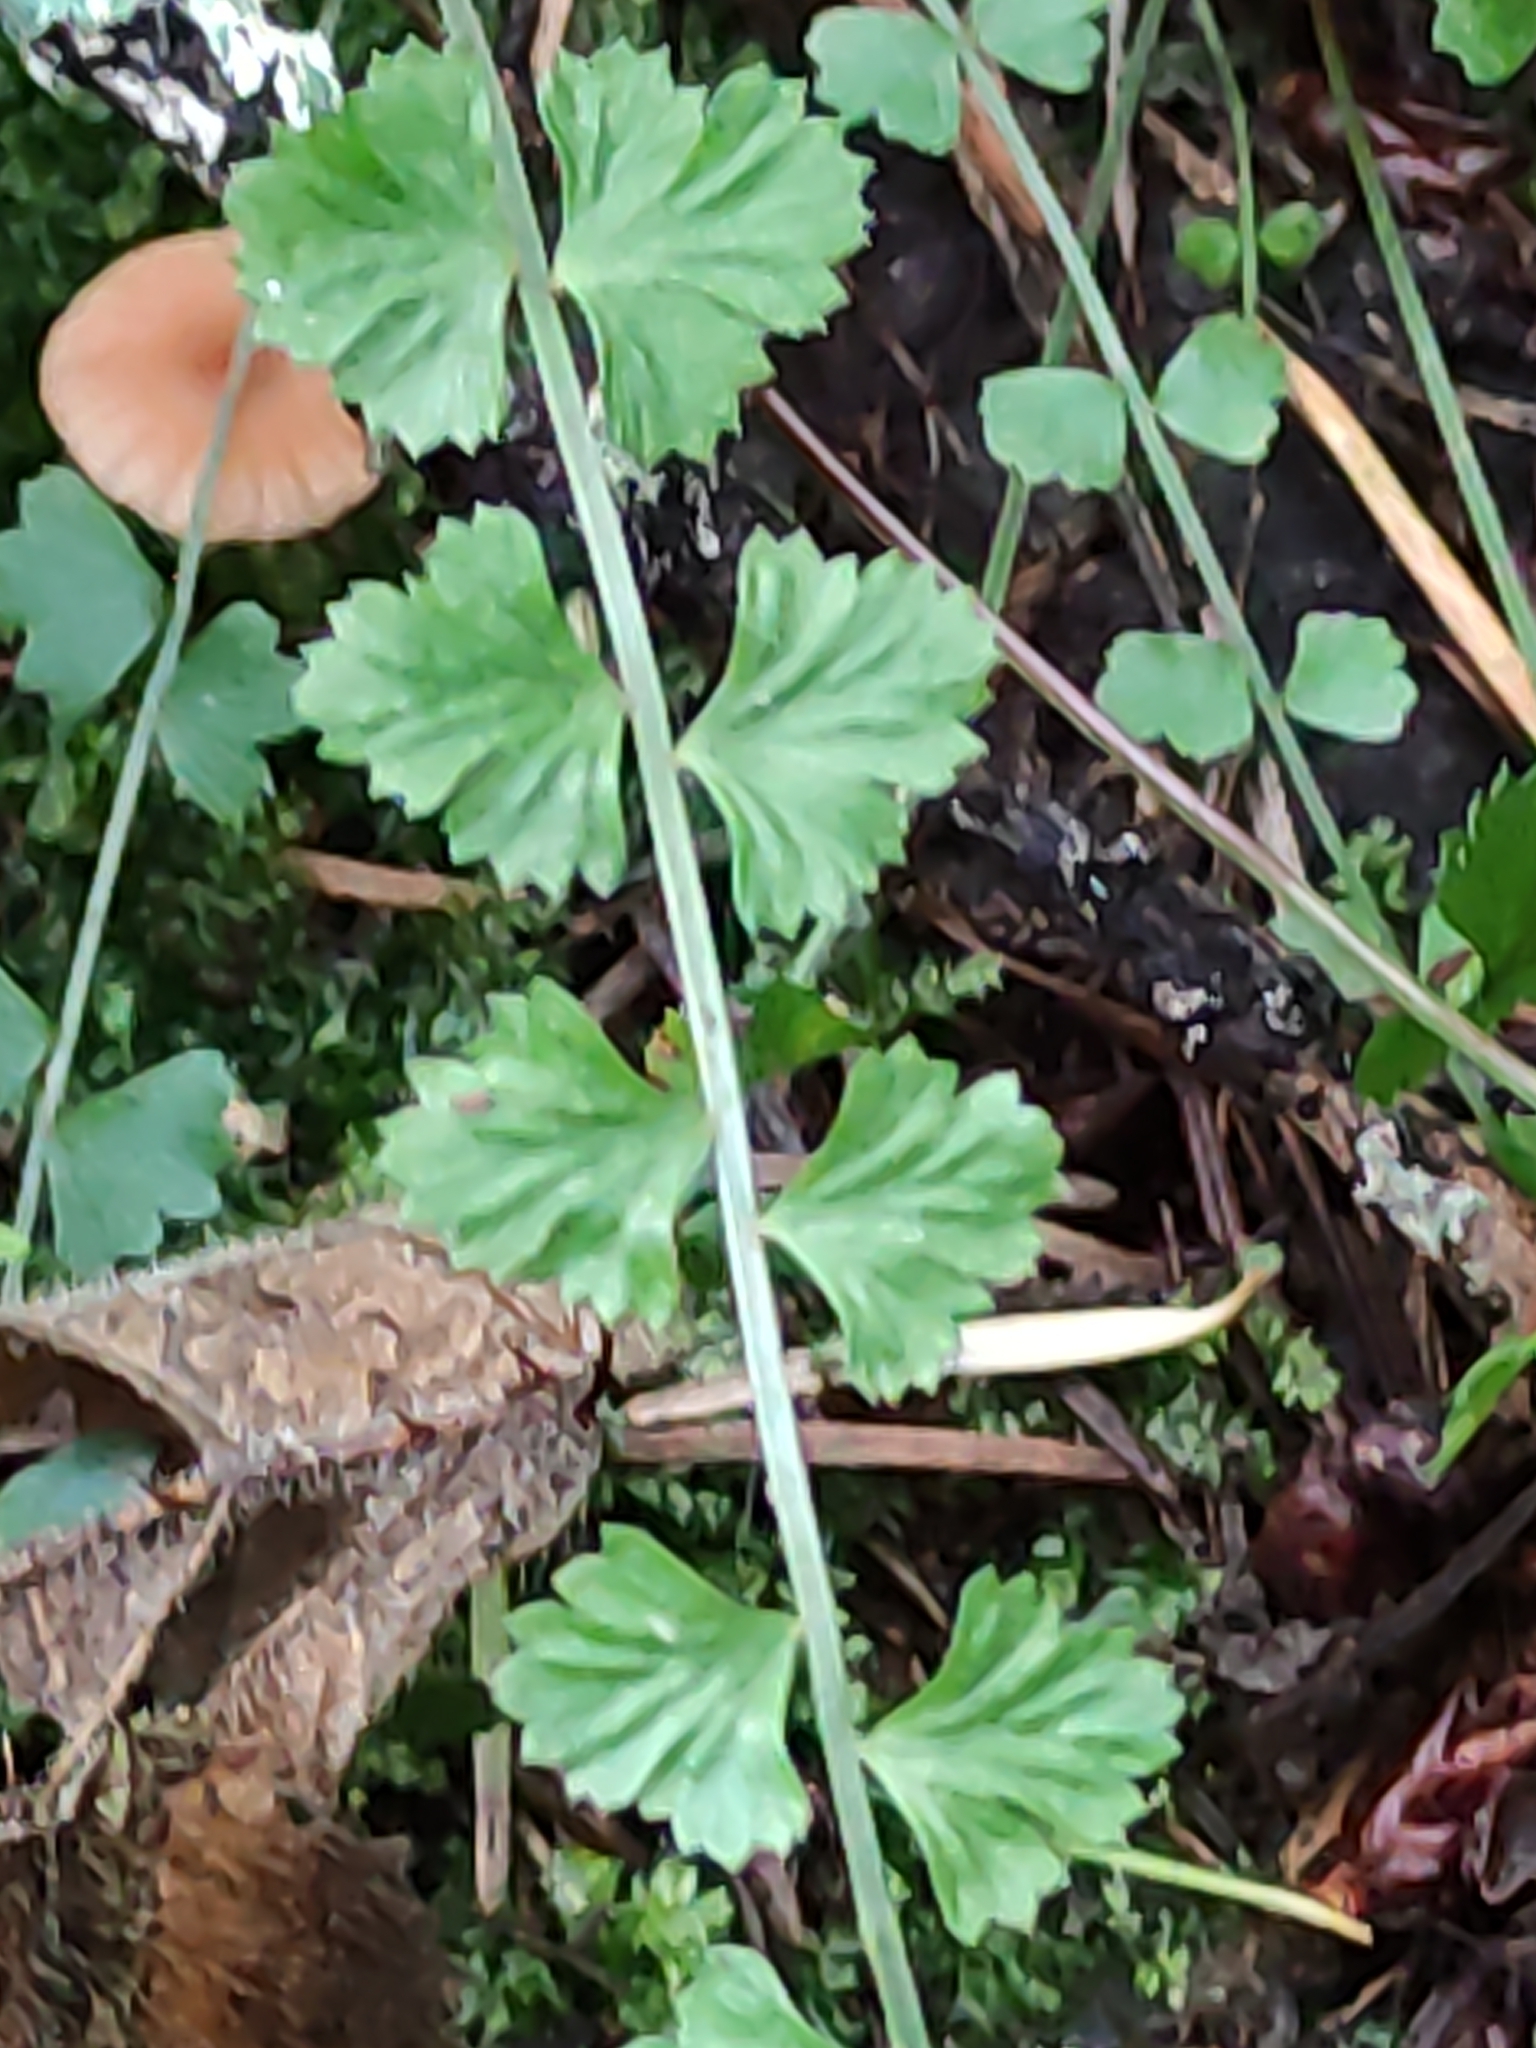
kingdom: Plantae
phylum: Tracheophyta
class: Polypodiopsida
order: Polypodiales
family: Aspleniaceae
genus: Asplenium
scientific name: Asplenium flabellifolium
